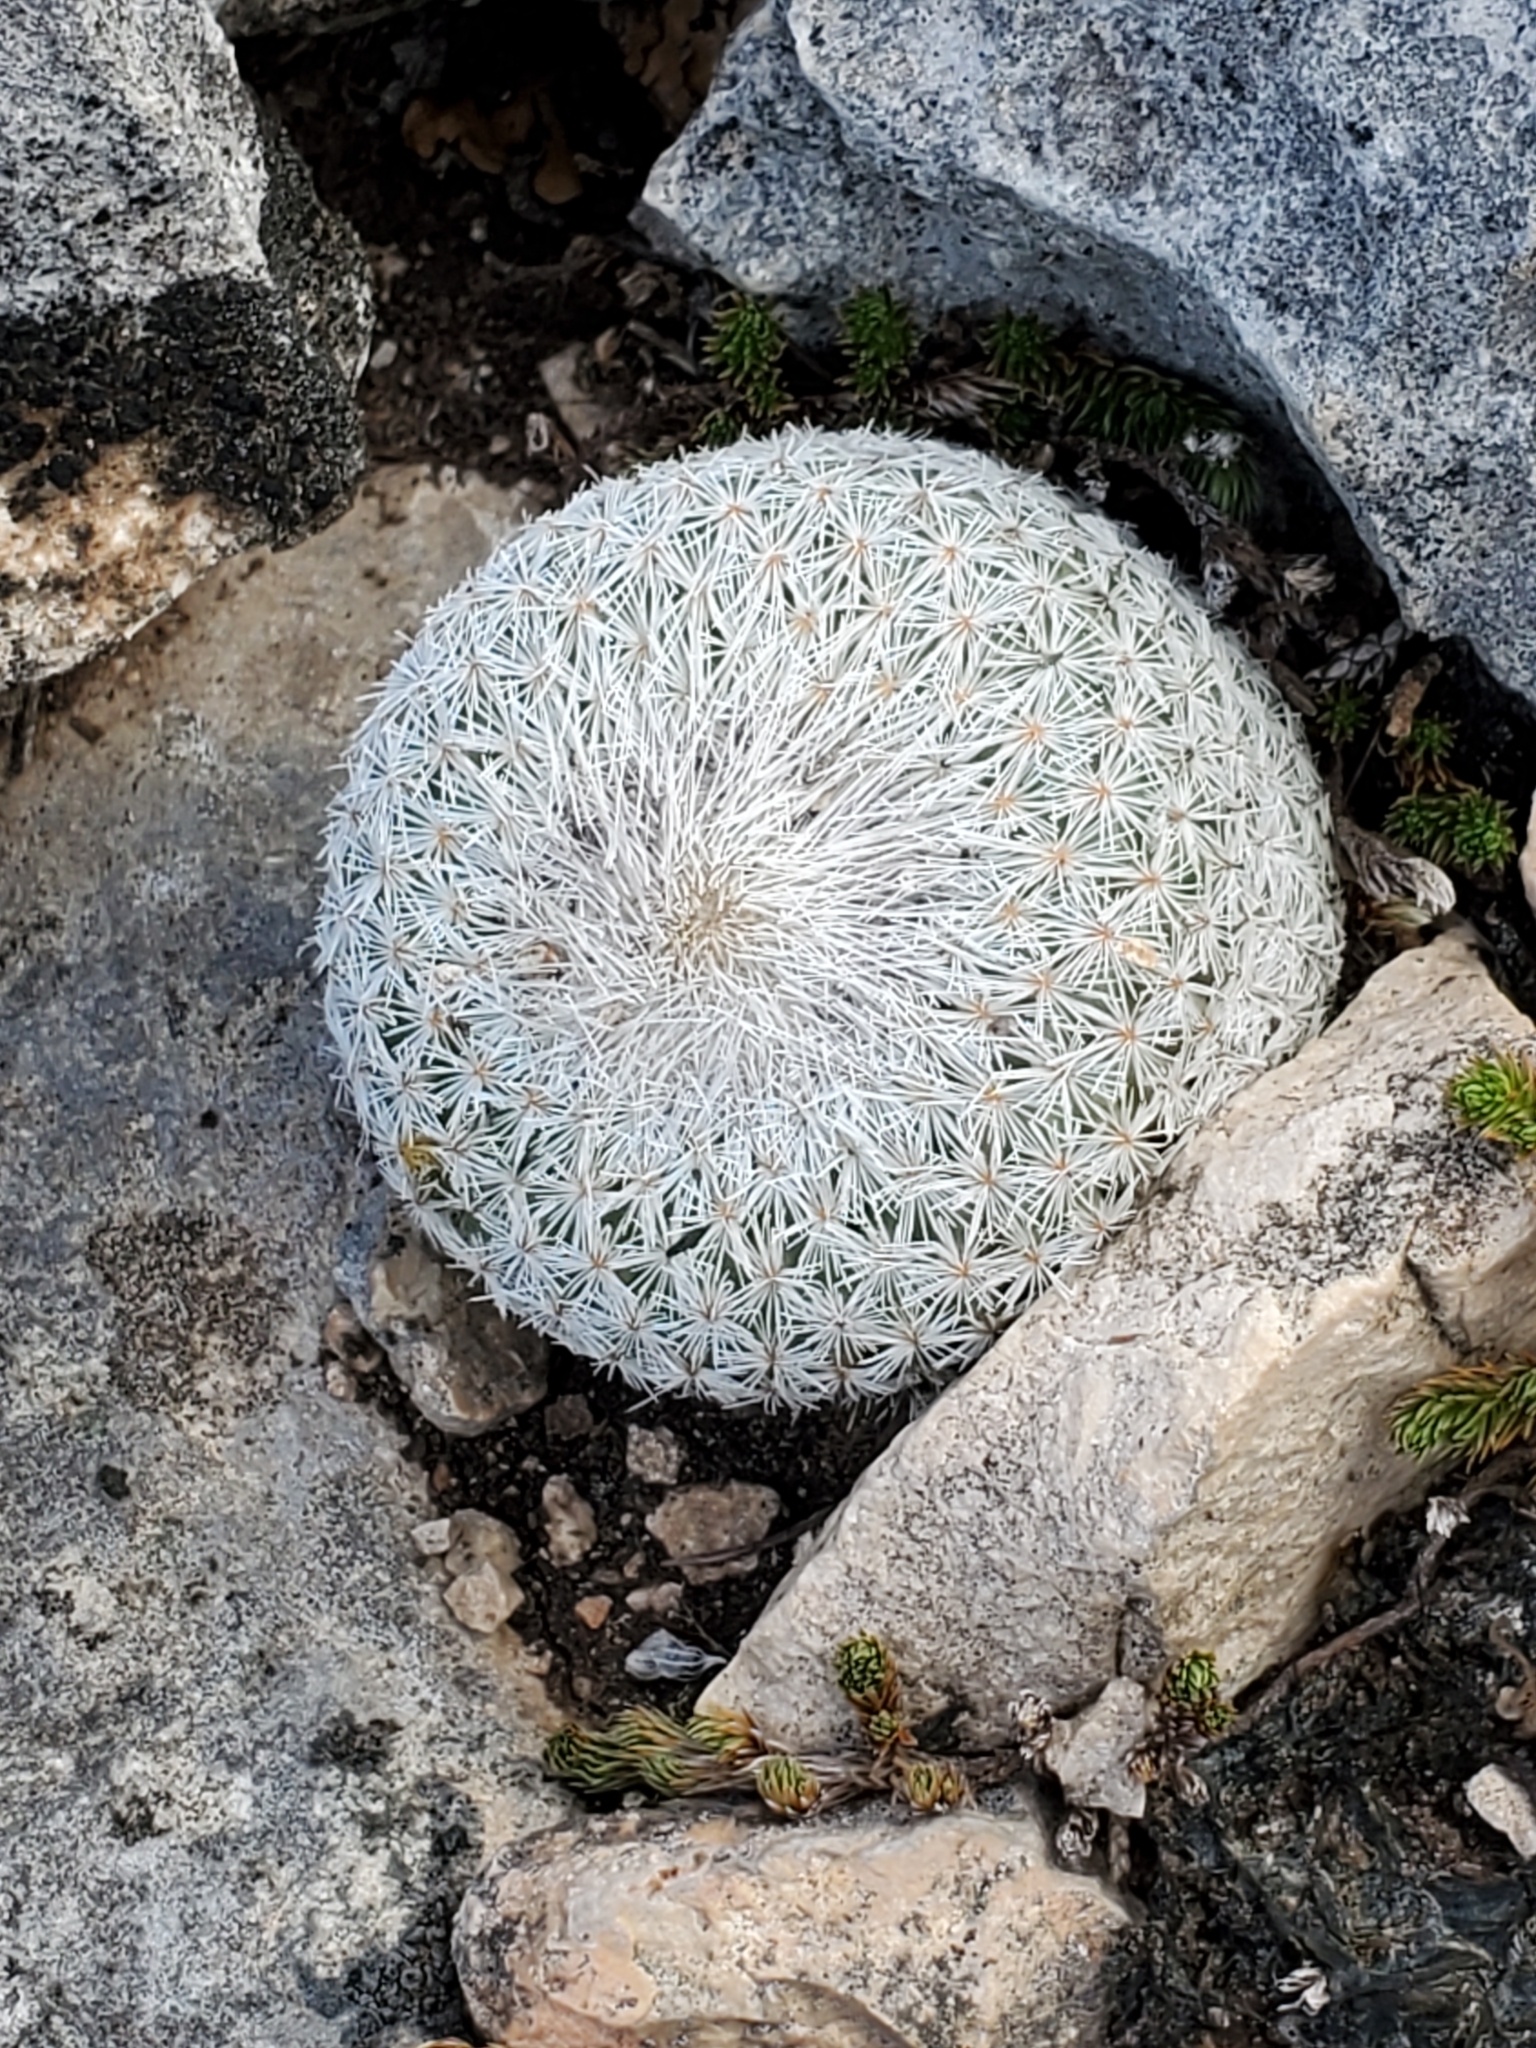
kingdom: Plantae
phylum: Tracheophyta
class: Magnoliopsida
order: Caryophyllales
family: Cactaceae
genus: Epithelantha
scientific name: Epithelantha micromeris
